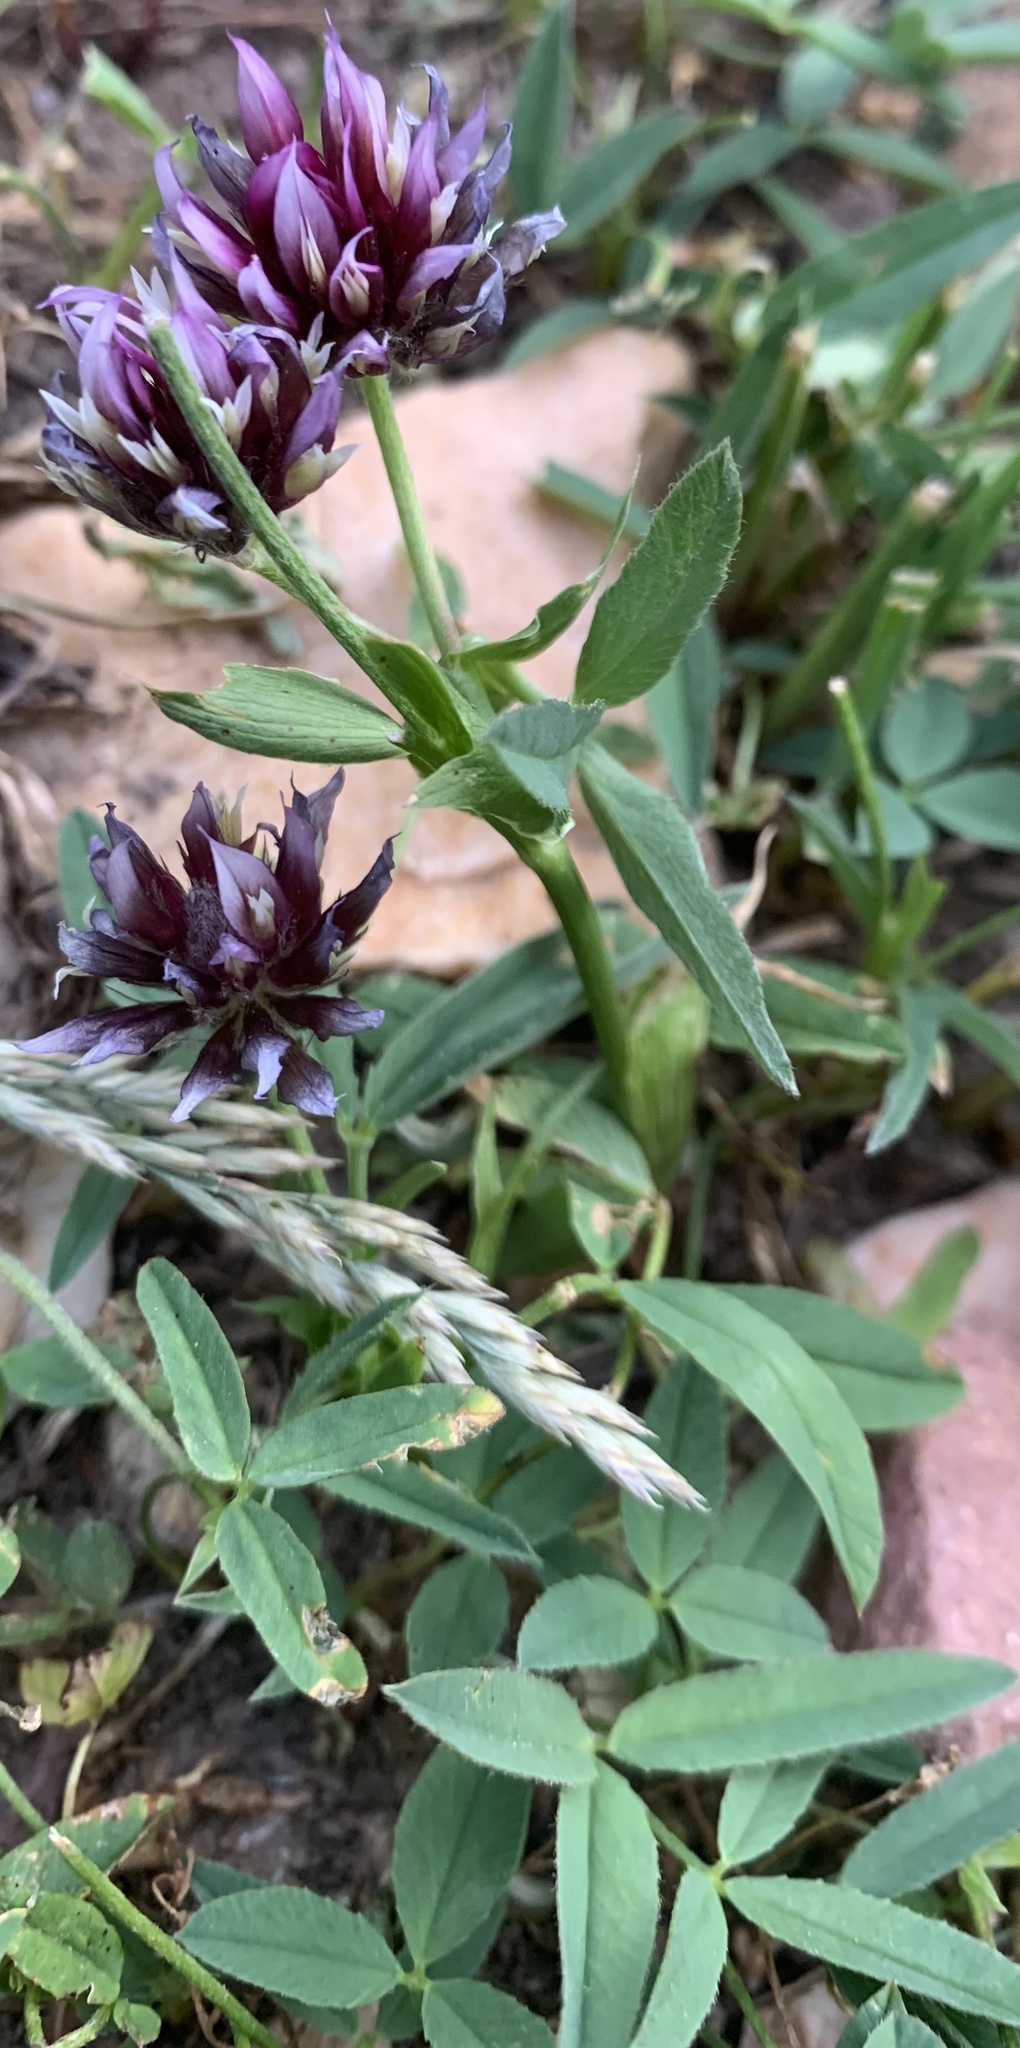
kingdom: Plantae
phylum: Tracheophyta
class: Magnoliopsida
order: Fabales
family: Fabaceae
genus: Trifolium
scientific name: Trifolium longipes
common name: Long-stalk clover
